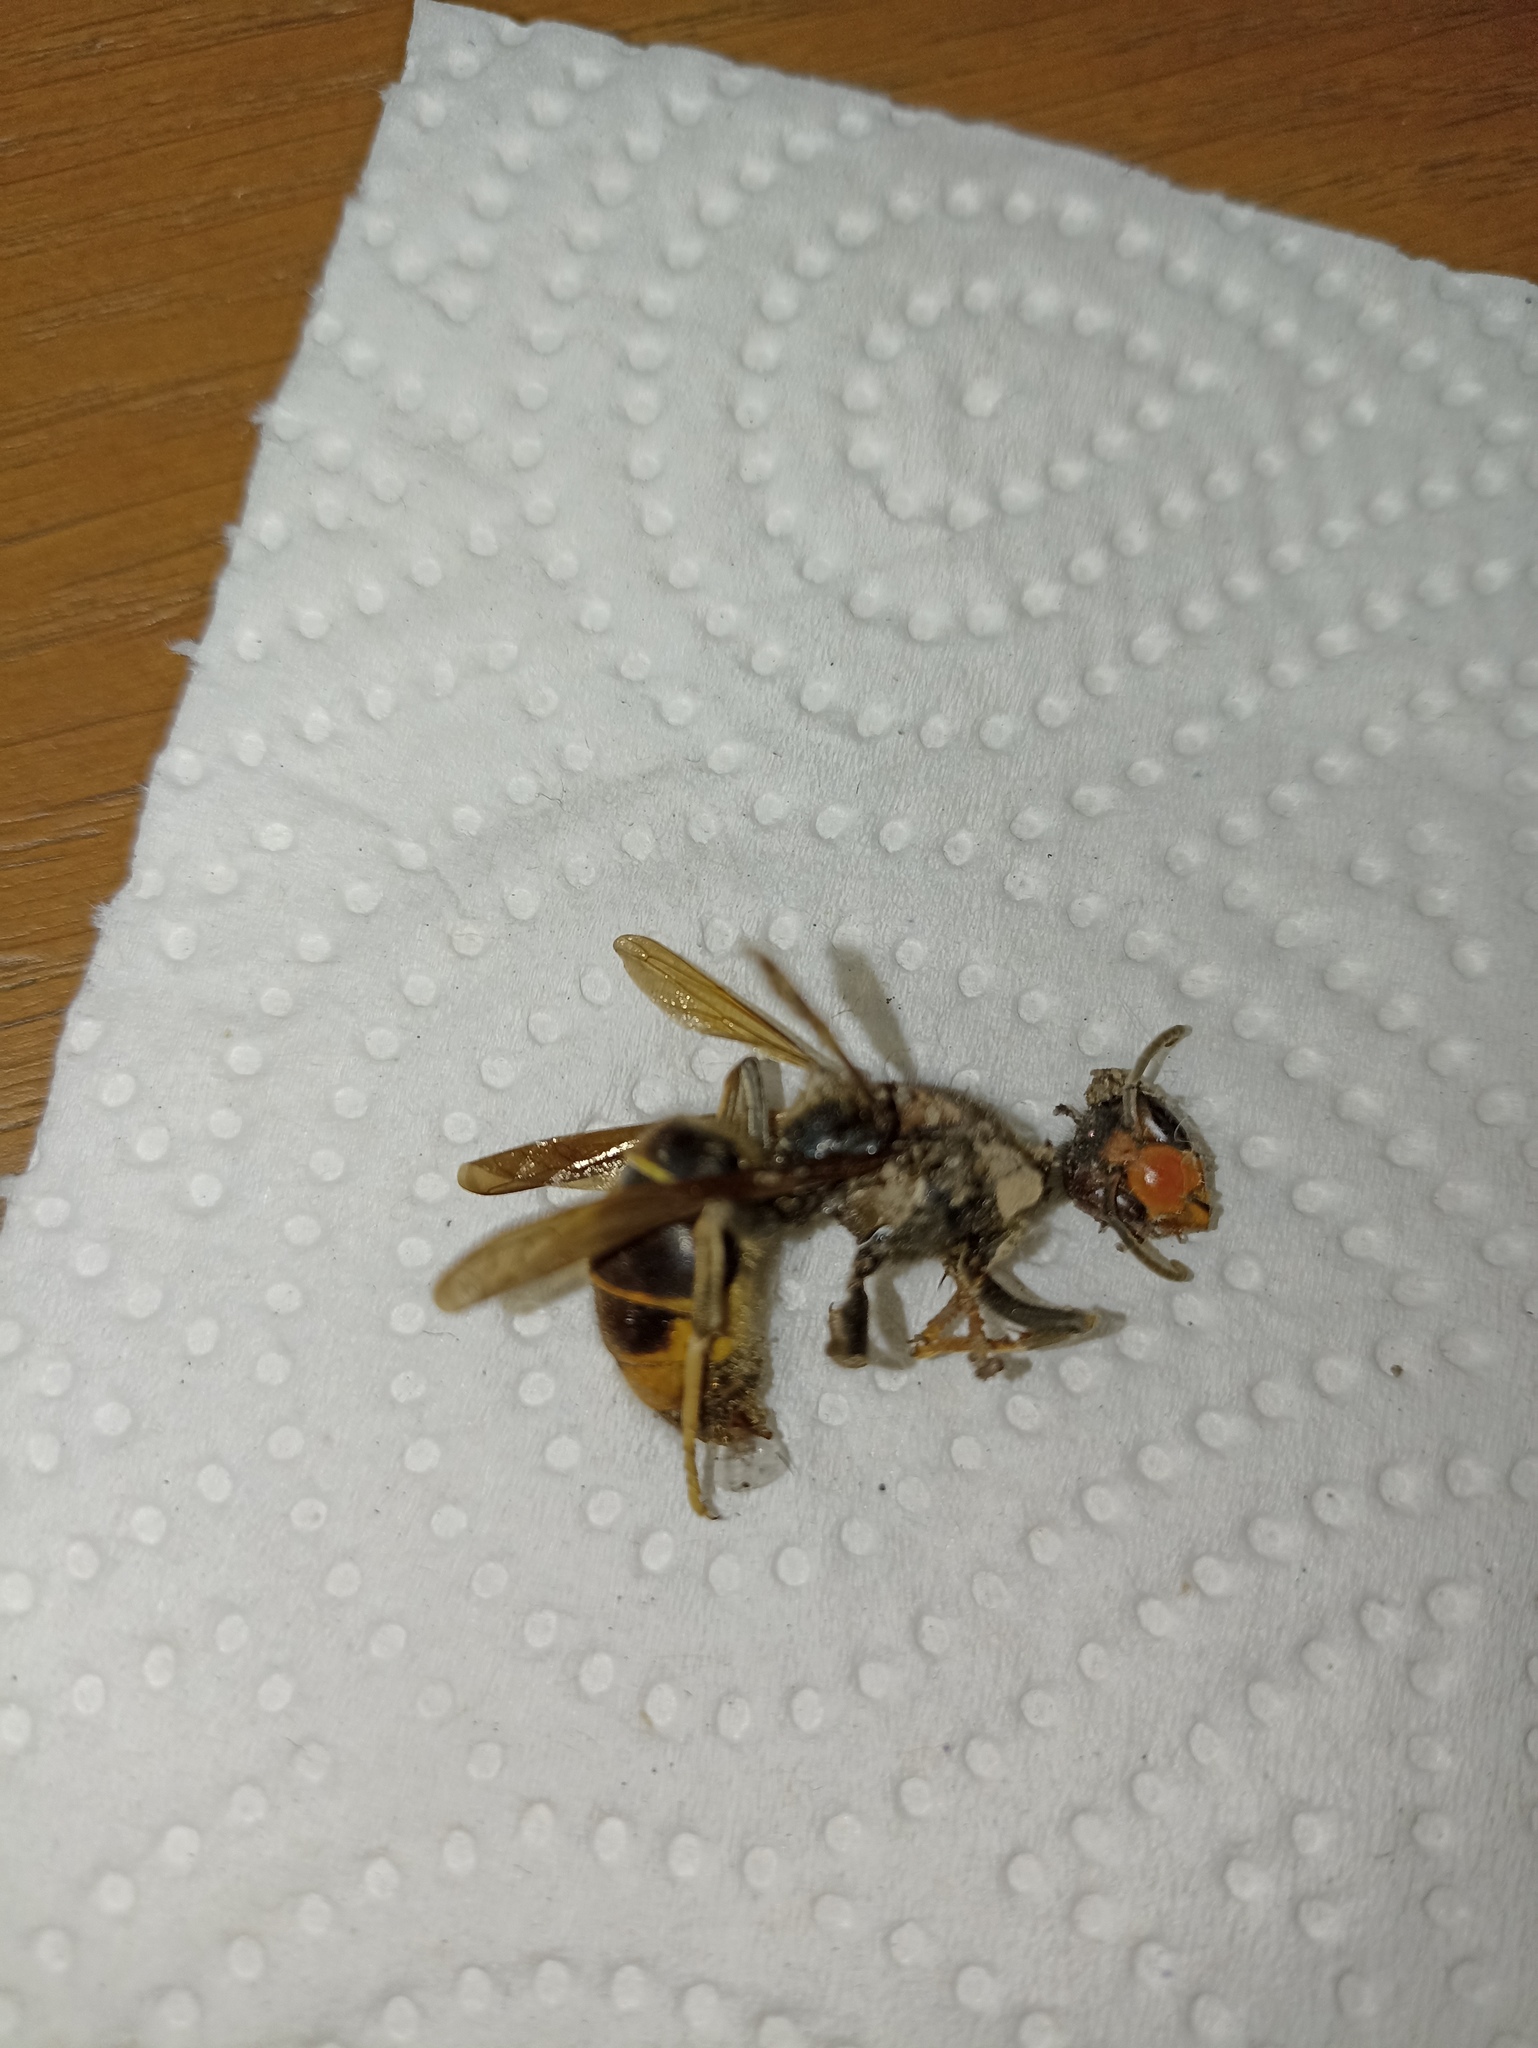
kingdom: Animalia
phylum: Arthropoda
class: Insecta
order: Hymenoptera
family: Vespidae
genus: Vespa
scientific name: Vespa velutina
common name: Asian hornet
